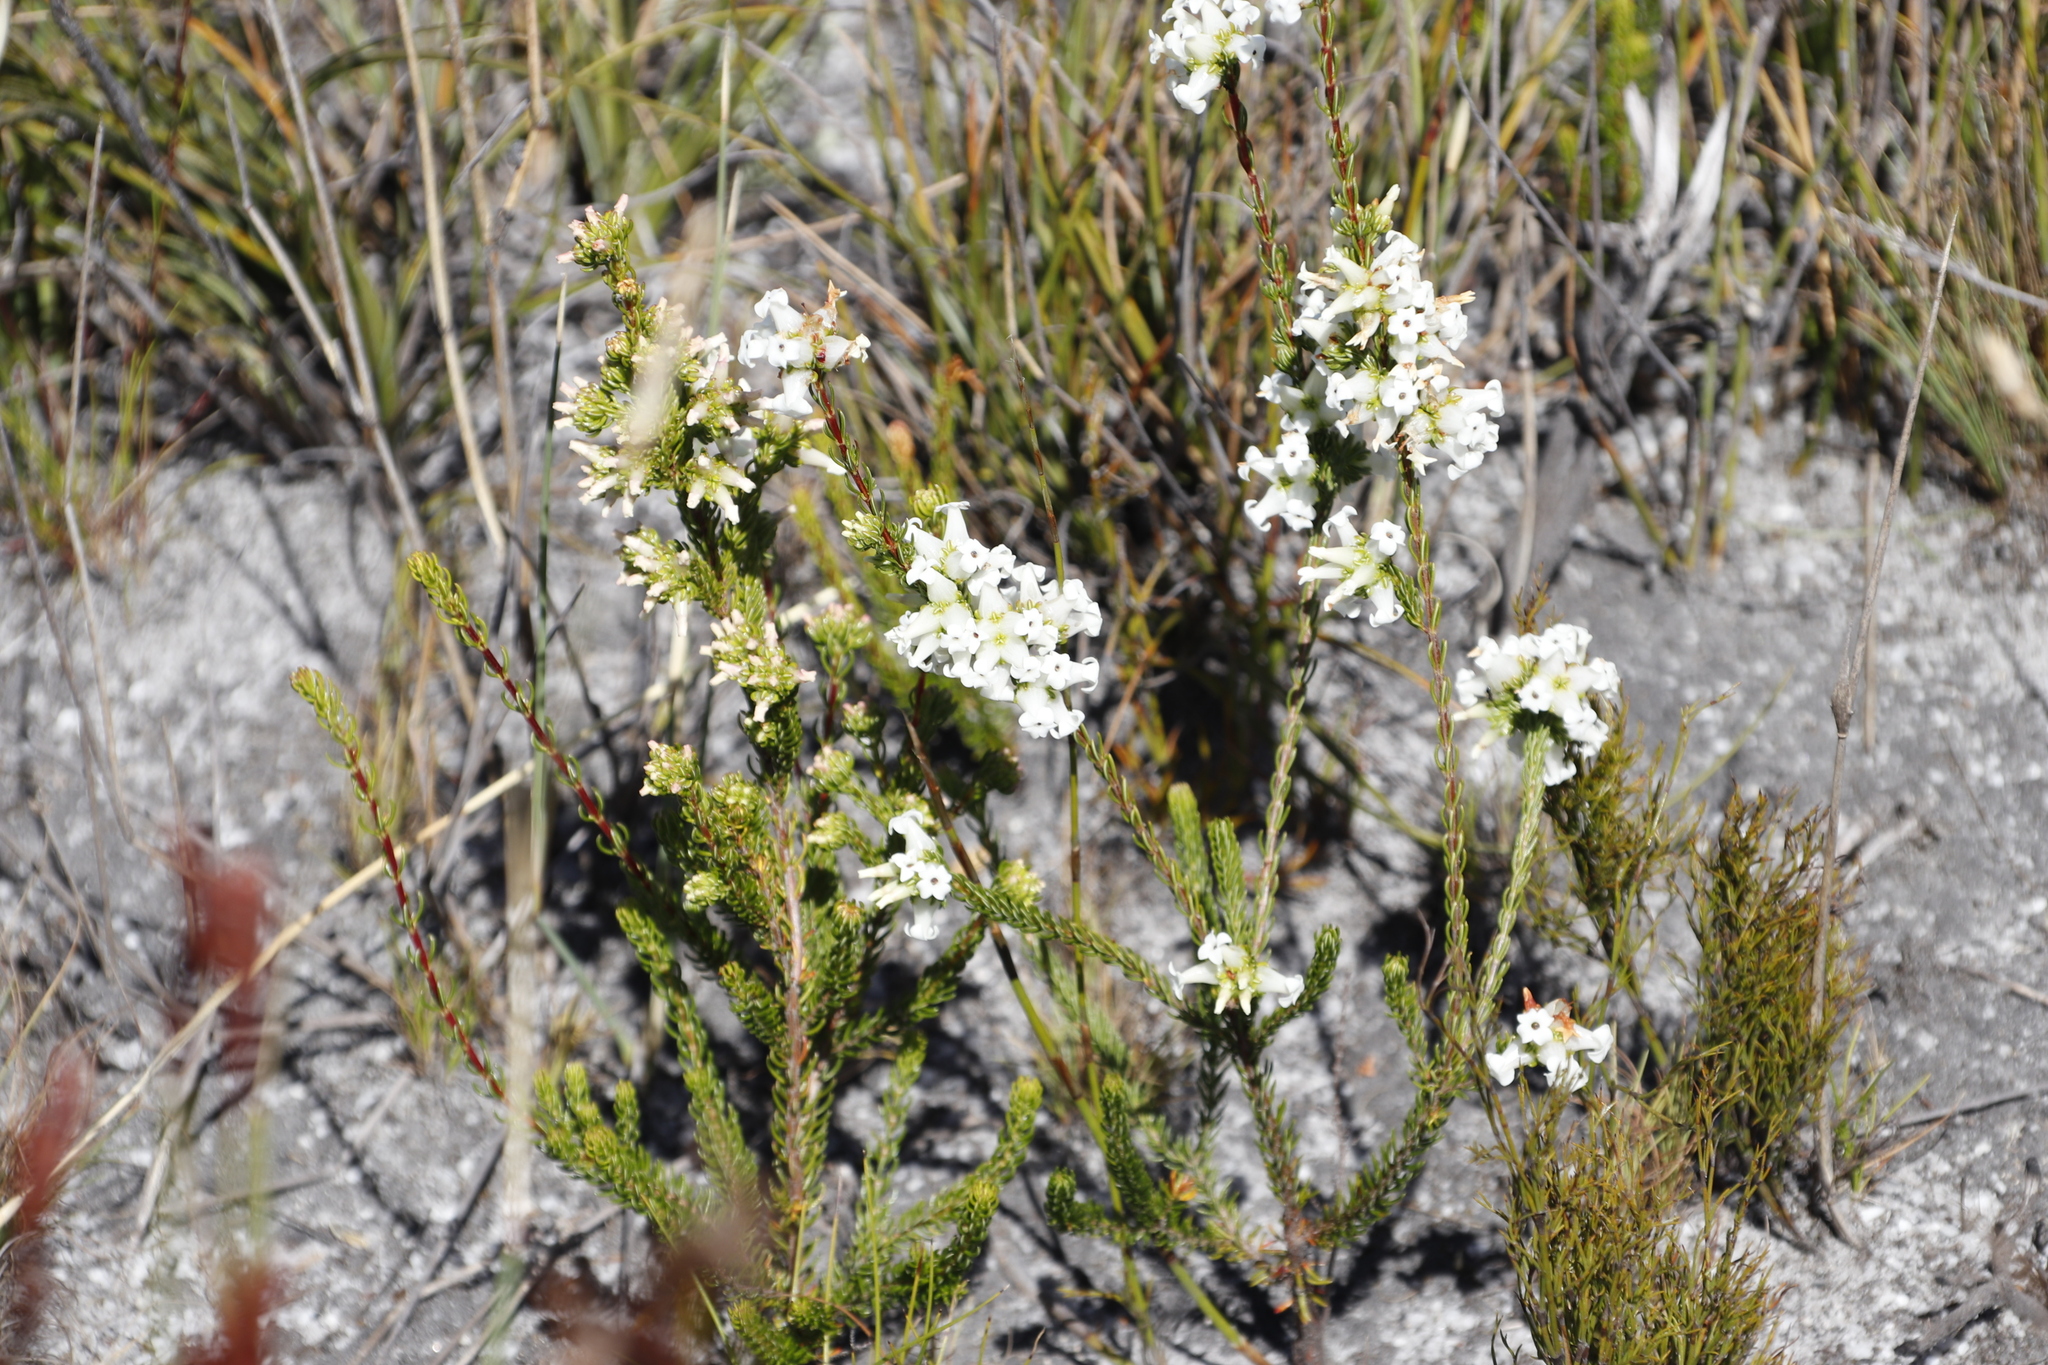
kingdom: Plantae
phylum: Tracheophyta
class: Magnoliopsida
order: Ericales
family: Ericaceae
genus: Erica
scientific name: Erica denticulata
